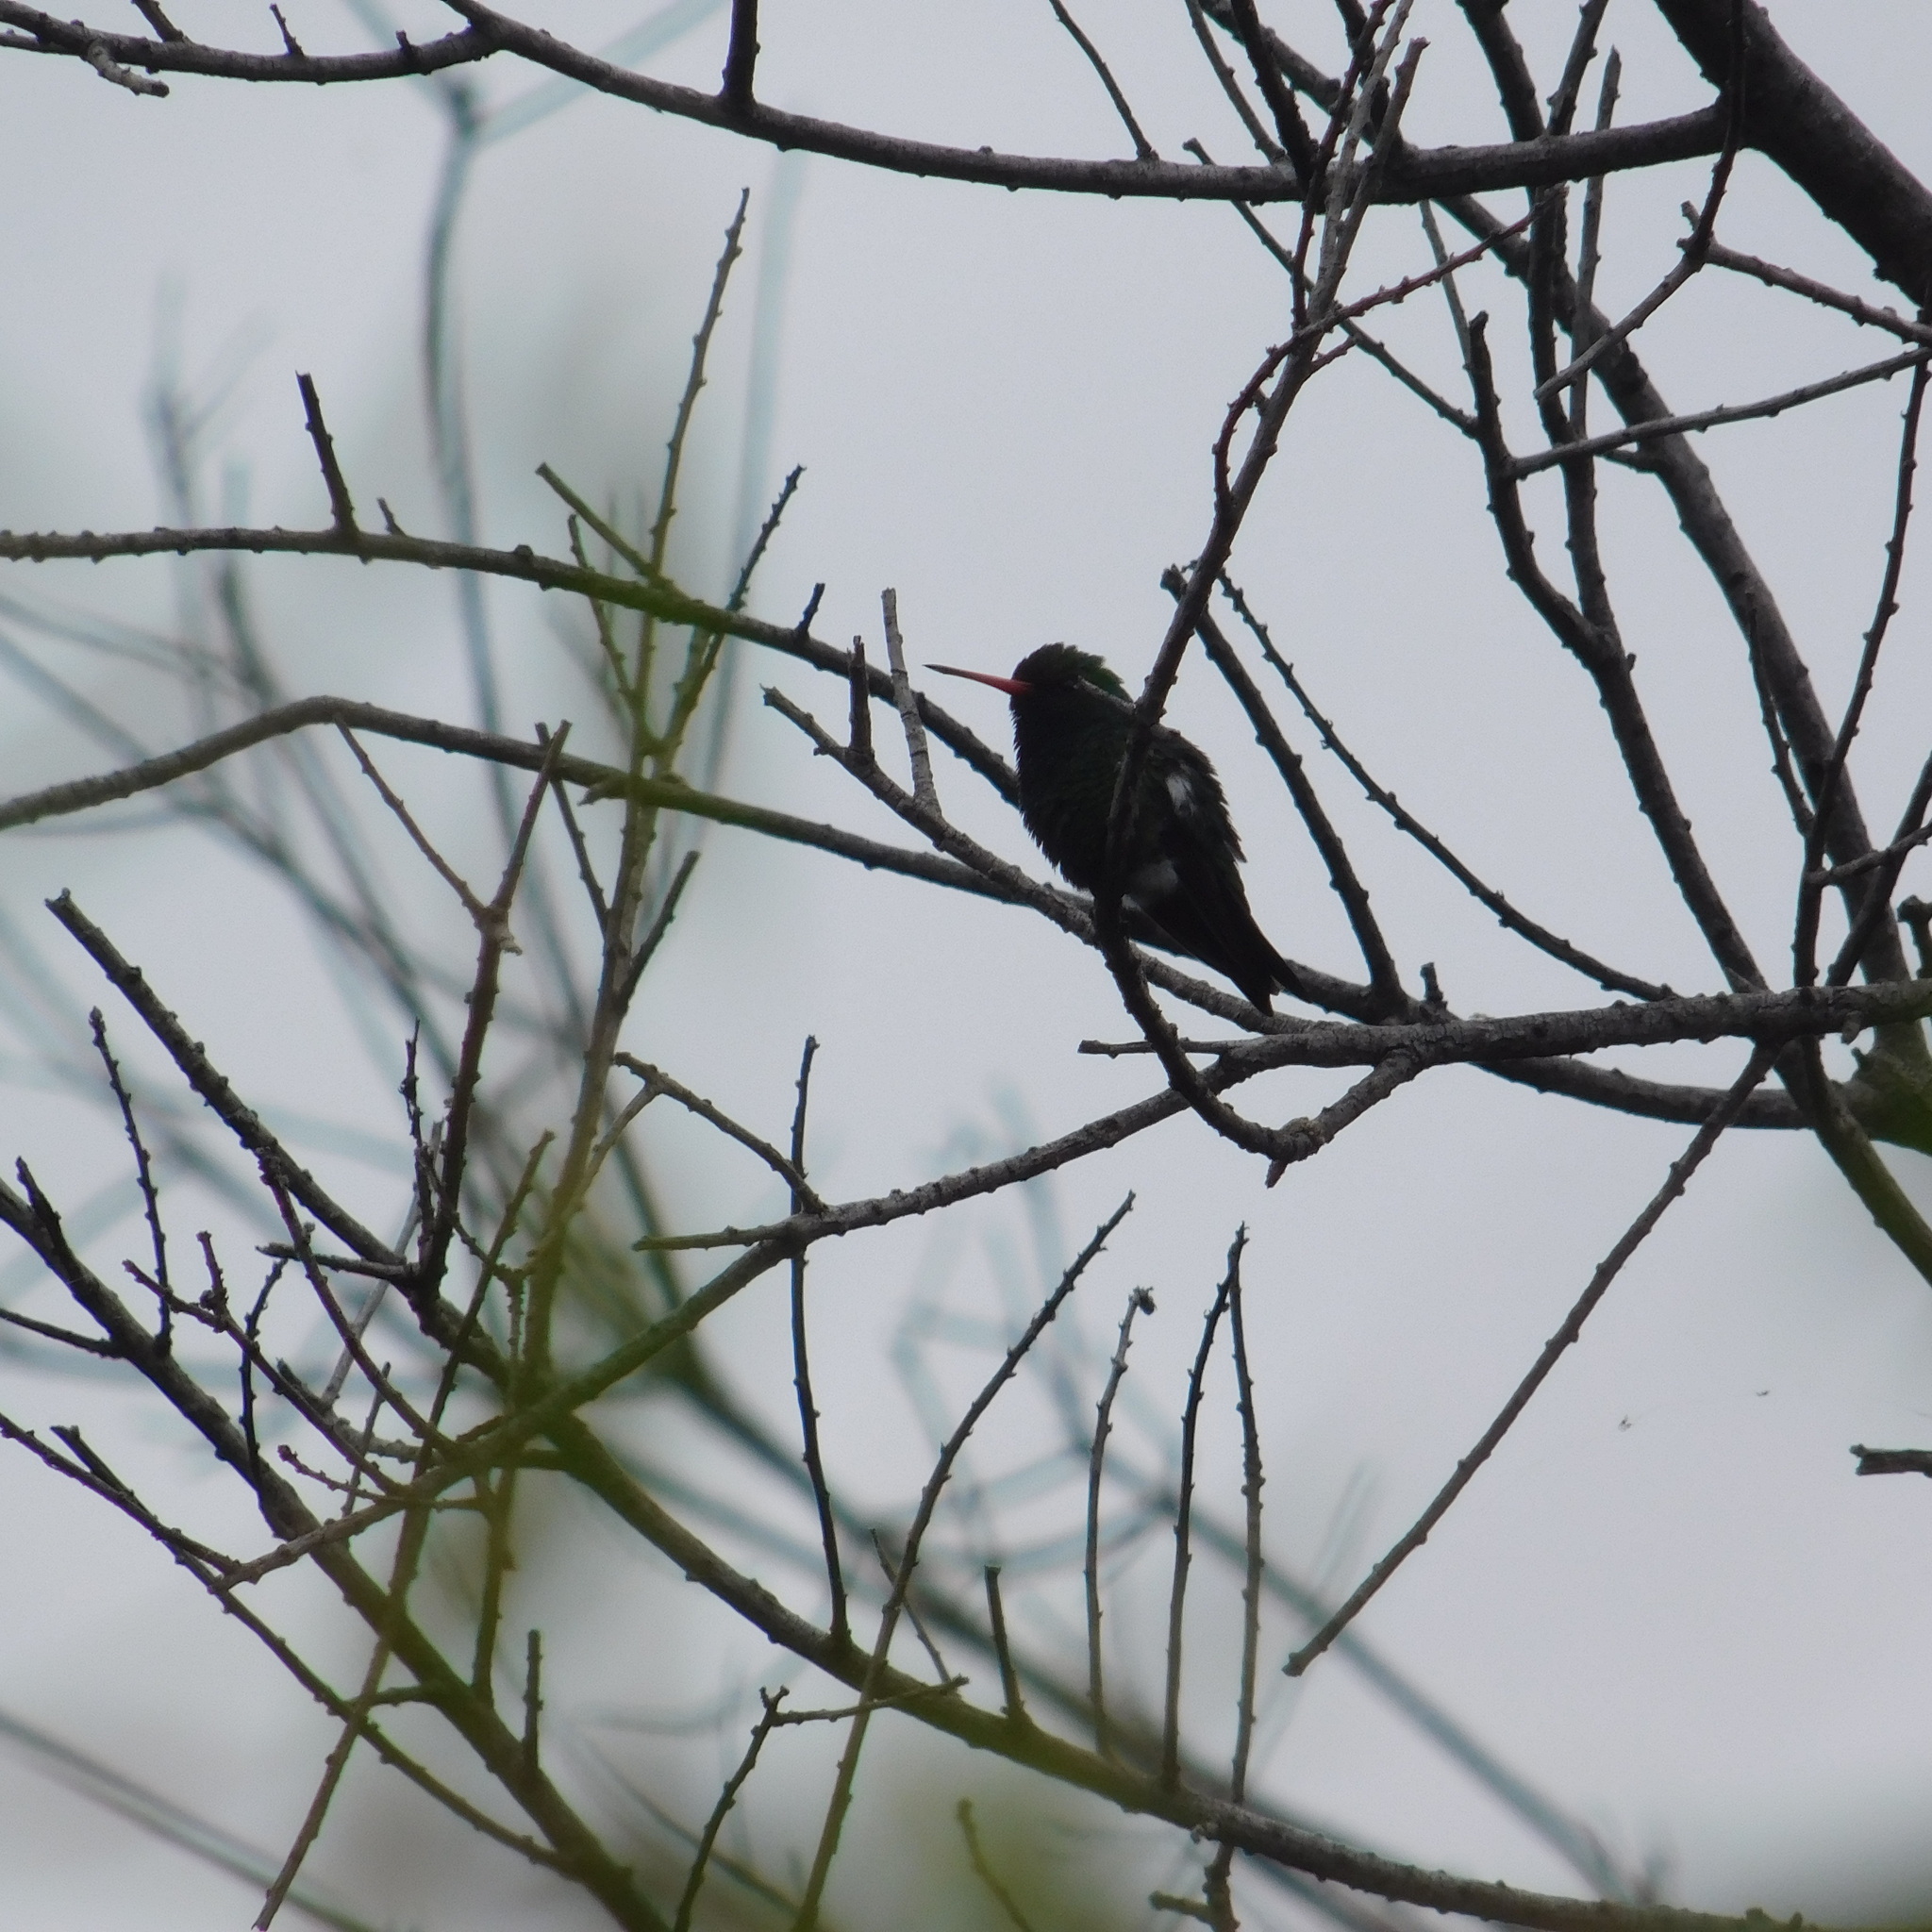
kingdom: Animalia
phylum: Chordata
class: Aves
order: Apodiformes
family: Trochilidae
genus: Chlorostilbon
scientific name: Chlorostilbon lucidus
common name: Glittering-bellied emerald
